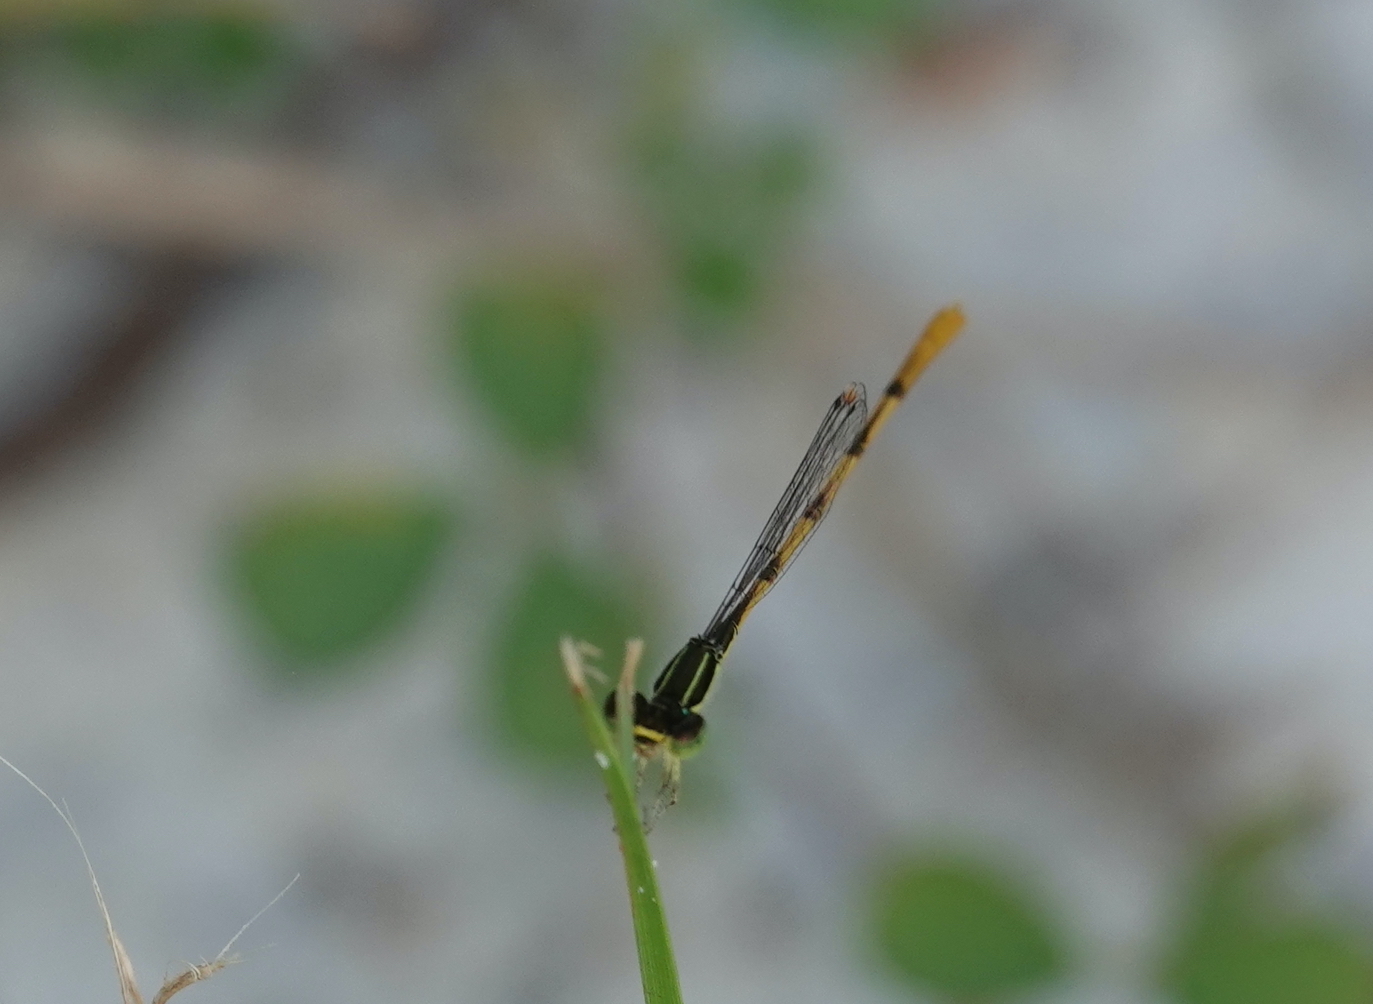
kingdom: Animalia
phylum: Arthropoda
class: Insecta
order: Odonata
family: Coenagrionidae
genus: Ischnura
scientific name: Ischnura hastata
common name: Citrine forktail
